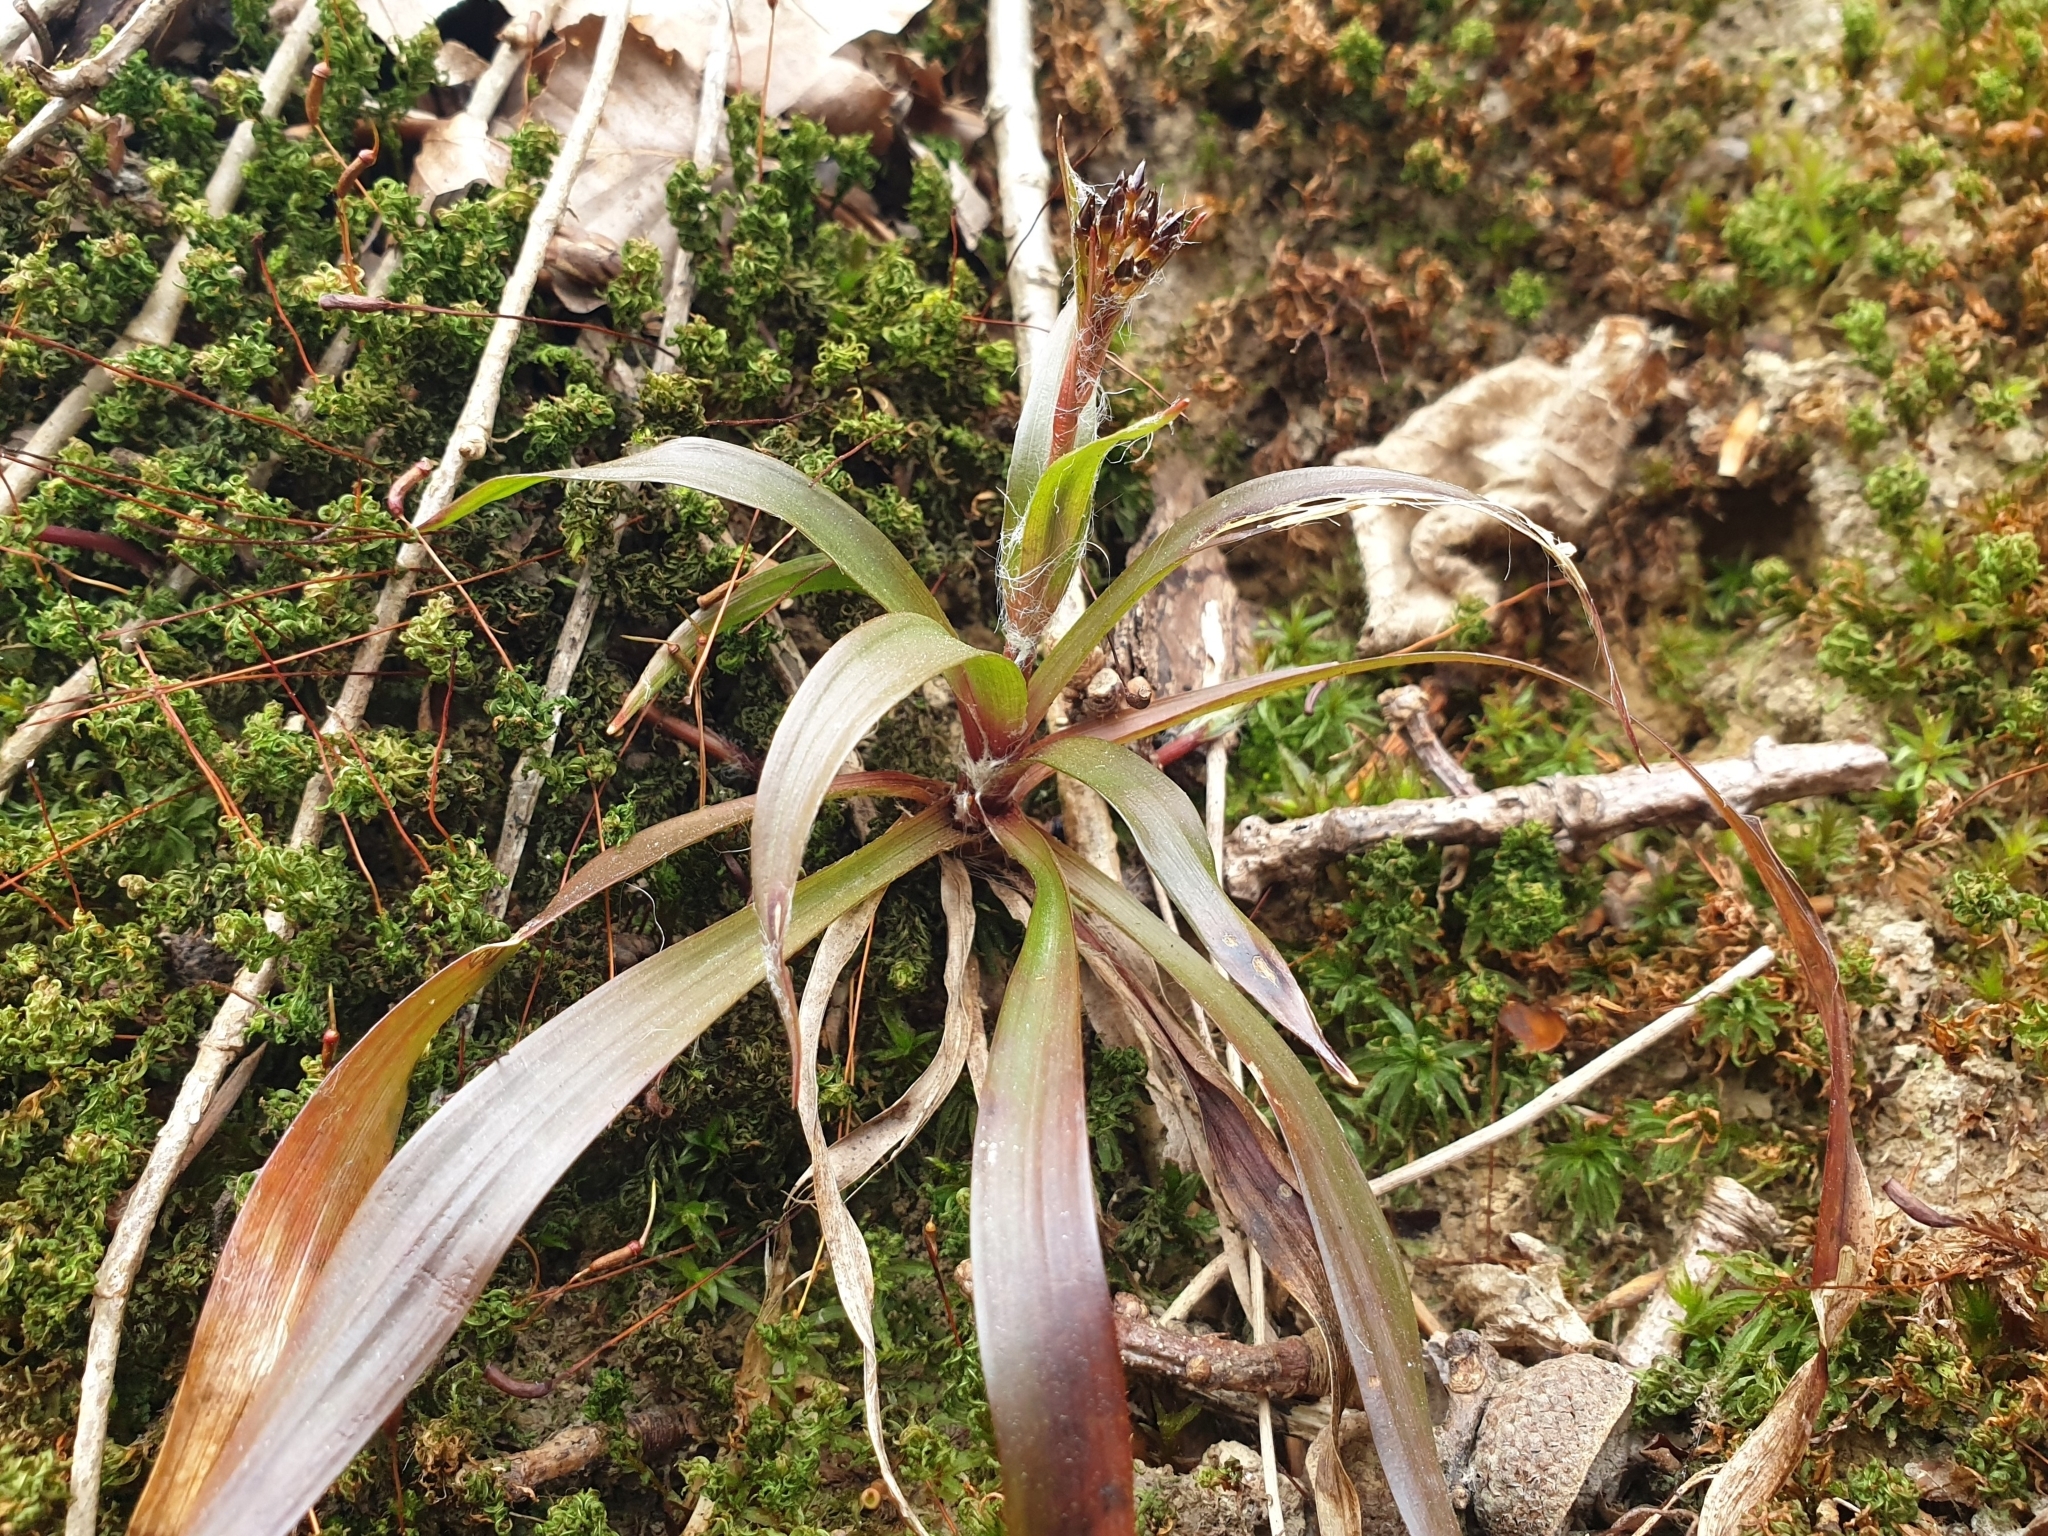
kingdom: Plantae
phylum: Tracheophyta
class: Liliopsida
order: Poales
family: Juncaceae
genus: Luzula
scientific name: Luzula pilosa
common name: Hairy wood-rush
